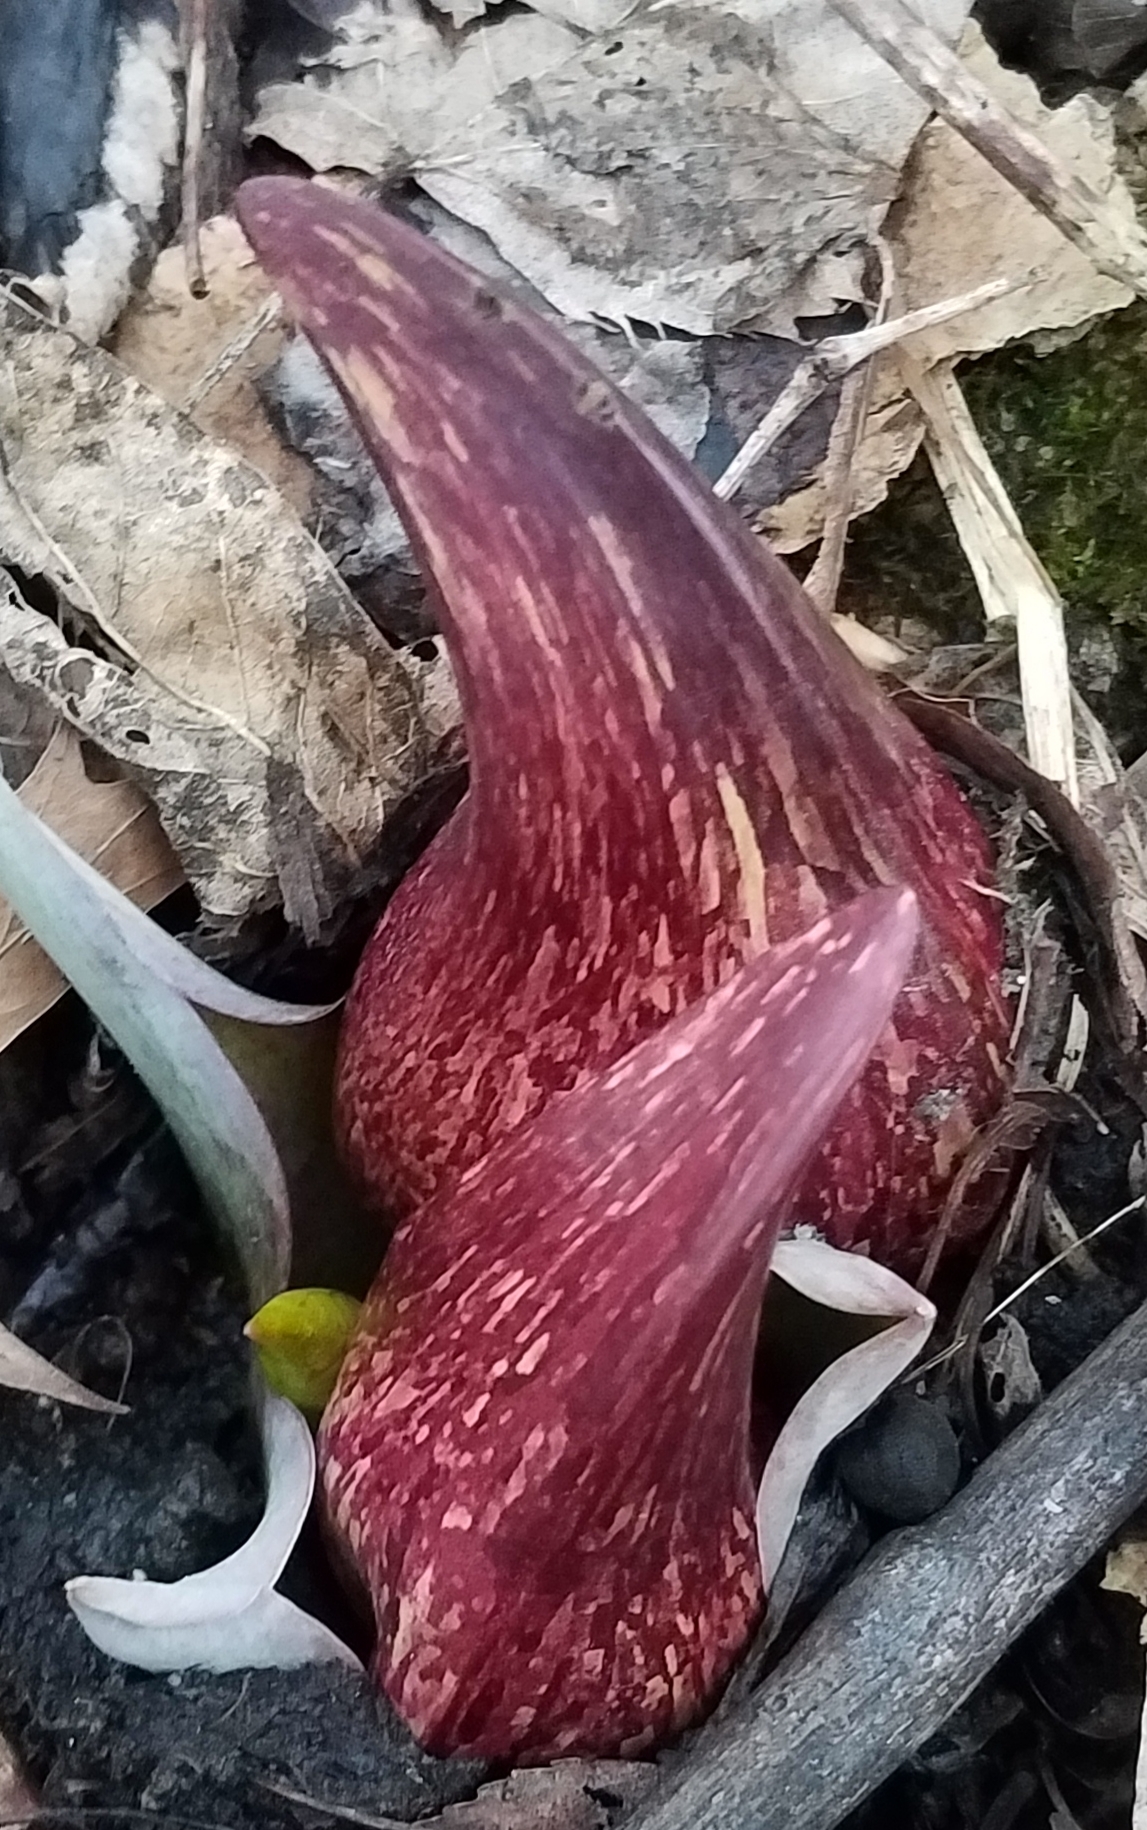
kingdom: Plantae
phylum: Tracheophyta
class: Liliopsida
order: Alismatales
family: Araceae
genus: Symplocarpus
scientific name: Symplocarpus foetidus
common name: Eastern skunk cabbage
